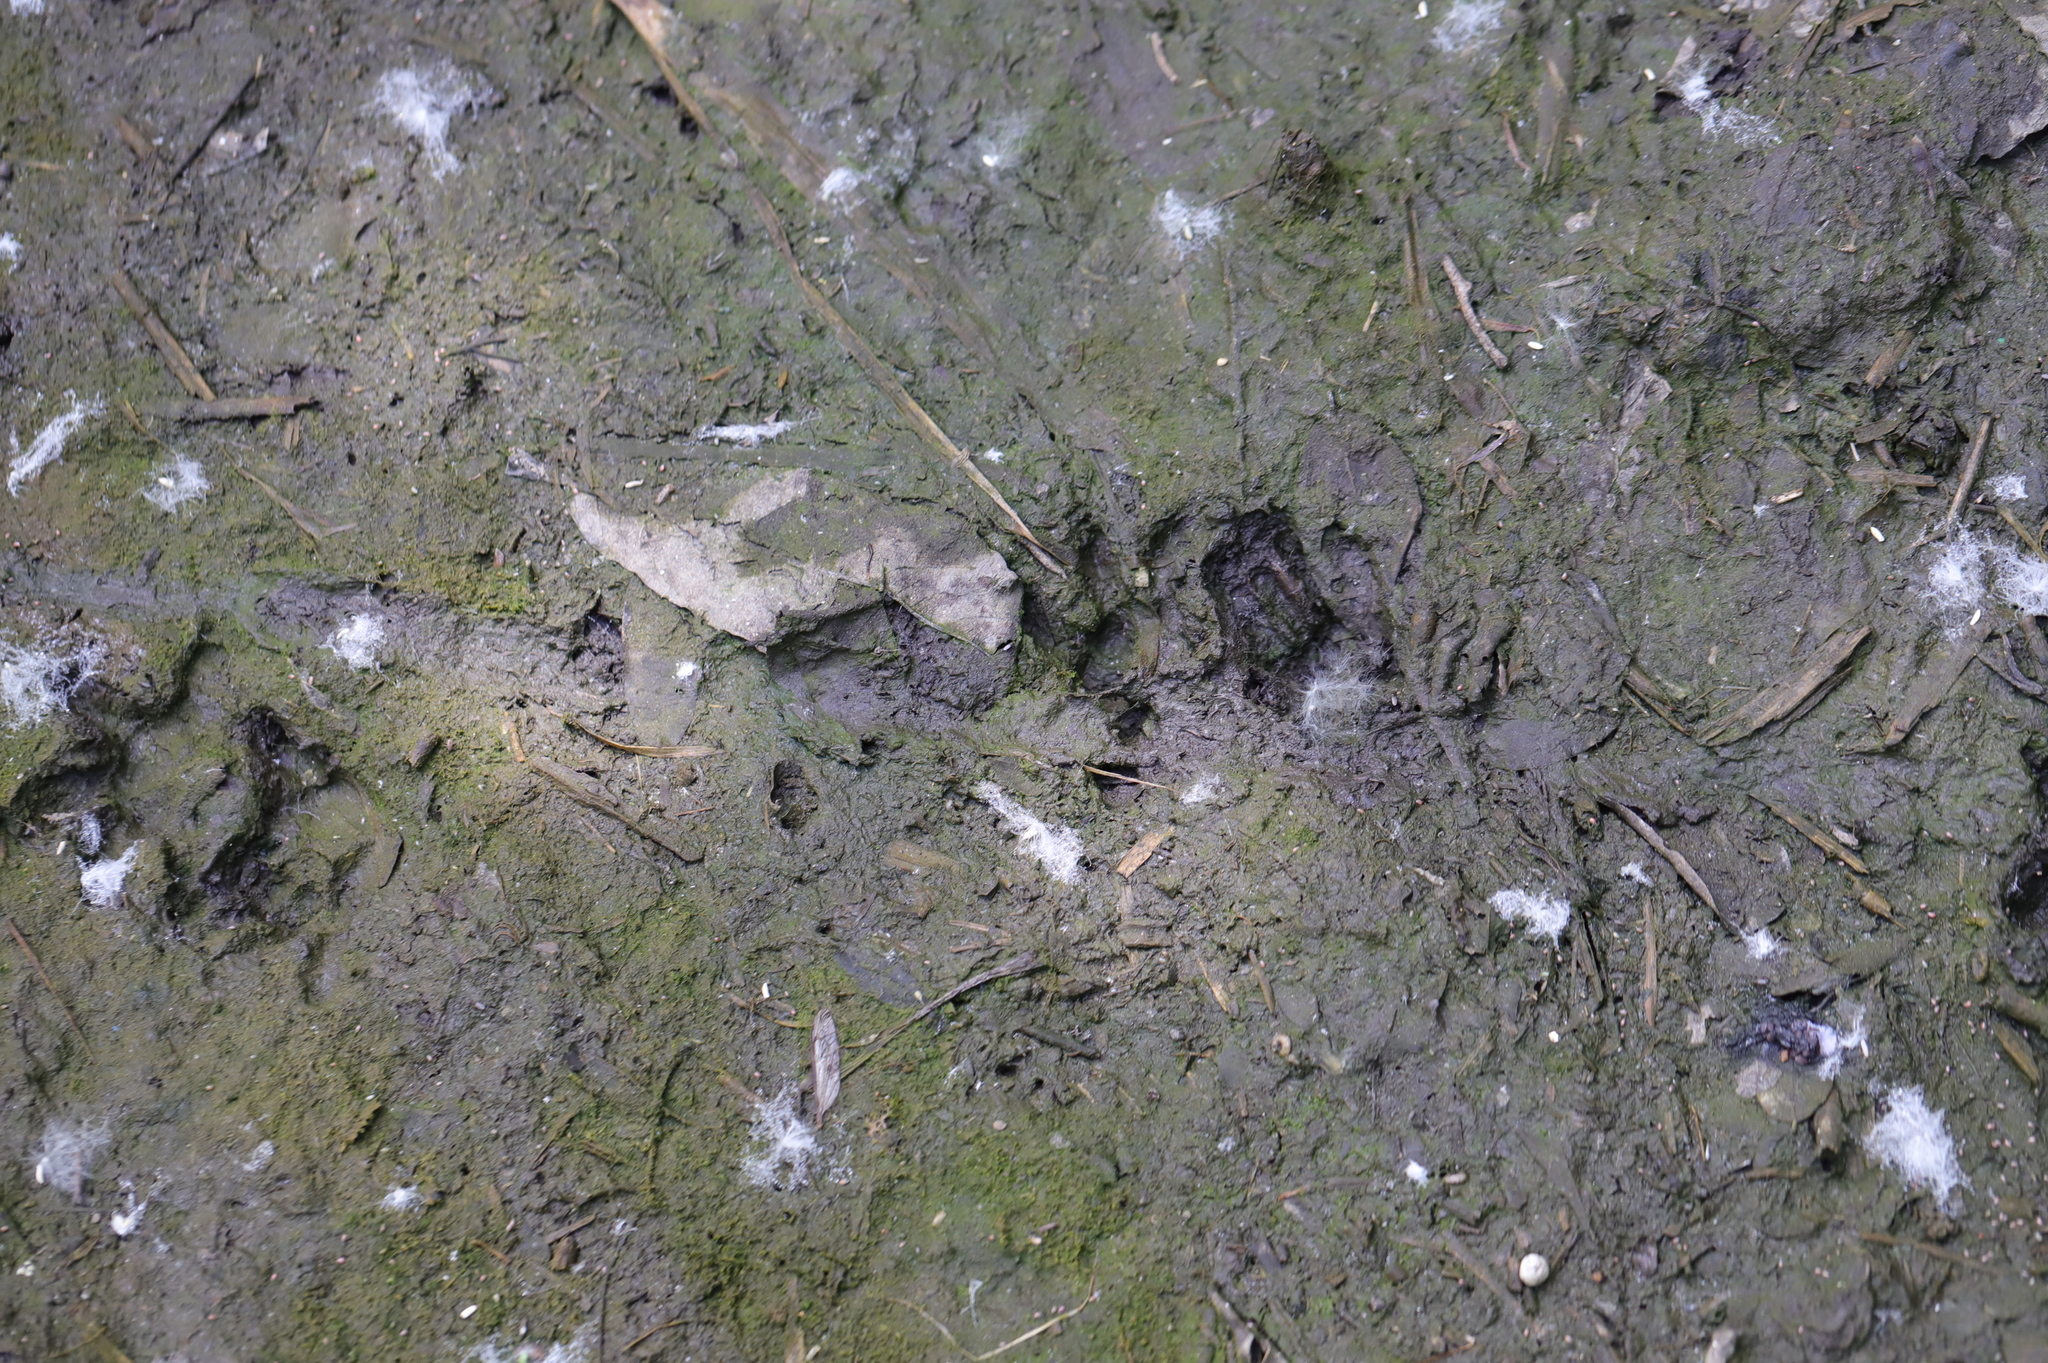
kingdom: Animalia
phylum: Chordata
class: Mammalia
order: Didelphimorphia
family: Didelphidae
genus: Didelphis
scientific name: Didelphis virginiana
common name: Virginia opossum
